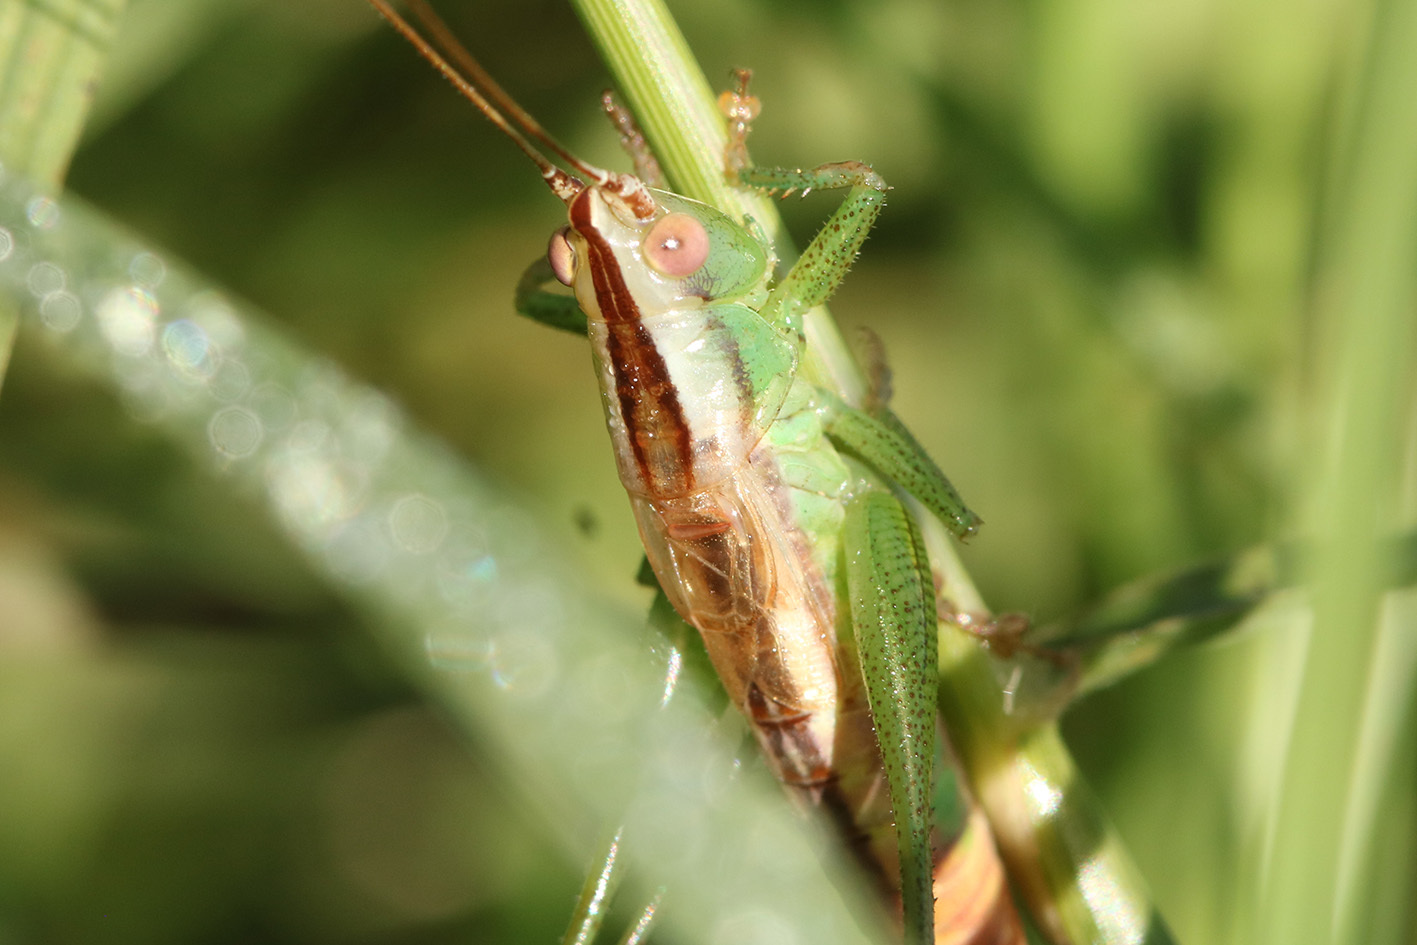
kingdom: Animalia
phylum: Arthropoda
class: Insecta
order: Orthoptera
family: Tettigoniidae
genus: Conocephalus
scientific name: Conocephalus doryphorus
